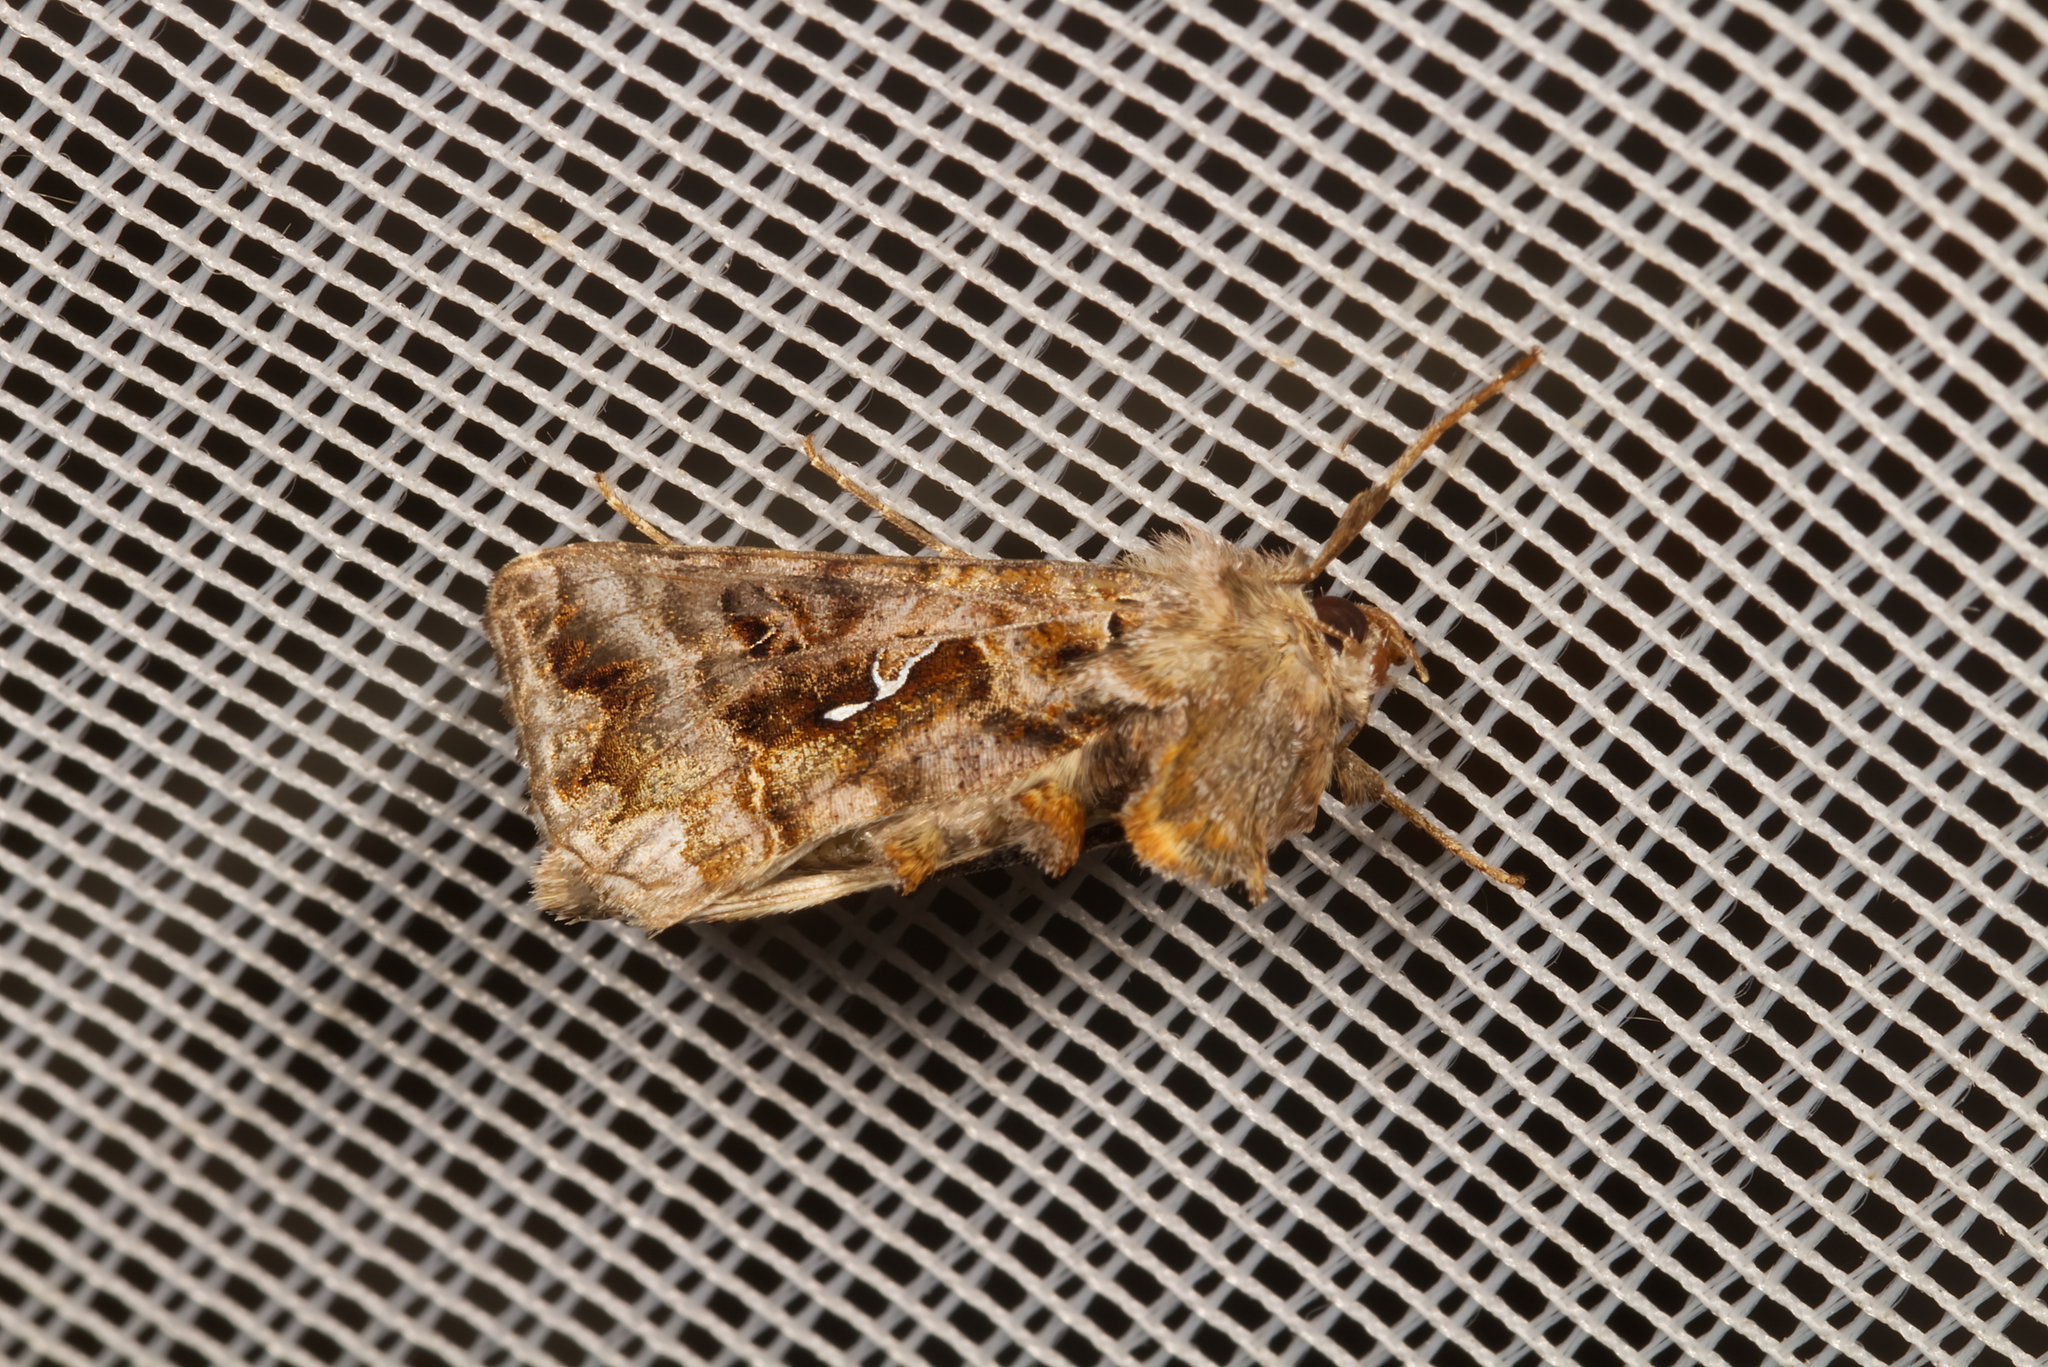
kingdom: Animalia
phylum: Arthropoda
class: Insecta
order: Lepidoptera
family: Noctuidae
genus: Autographa
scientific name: Autographa pulchrina
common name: Beautiful golden y
